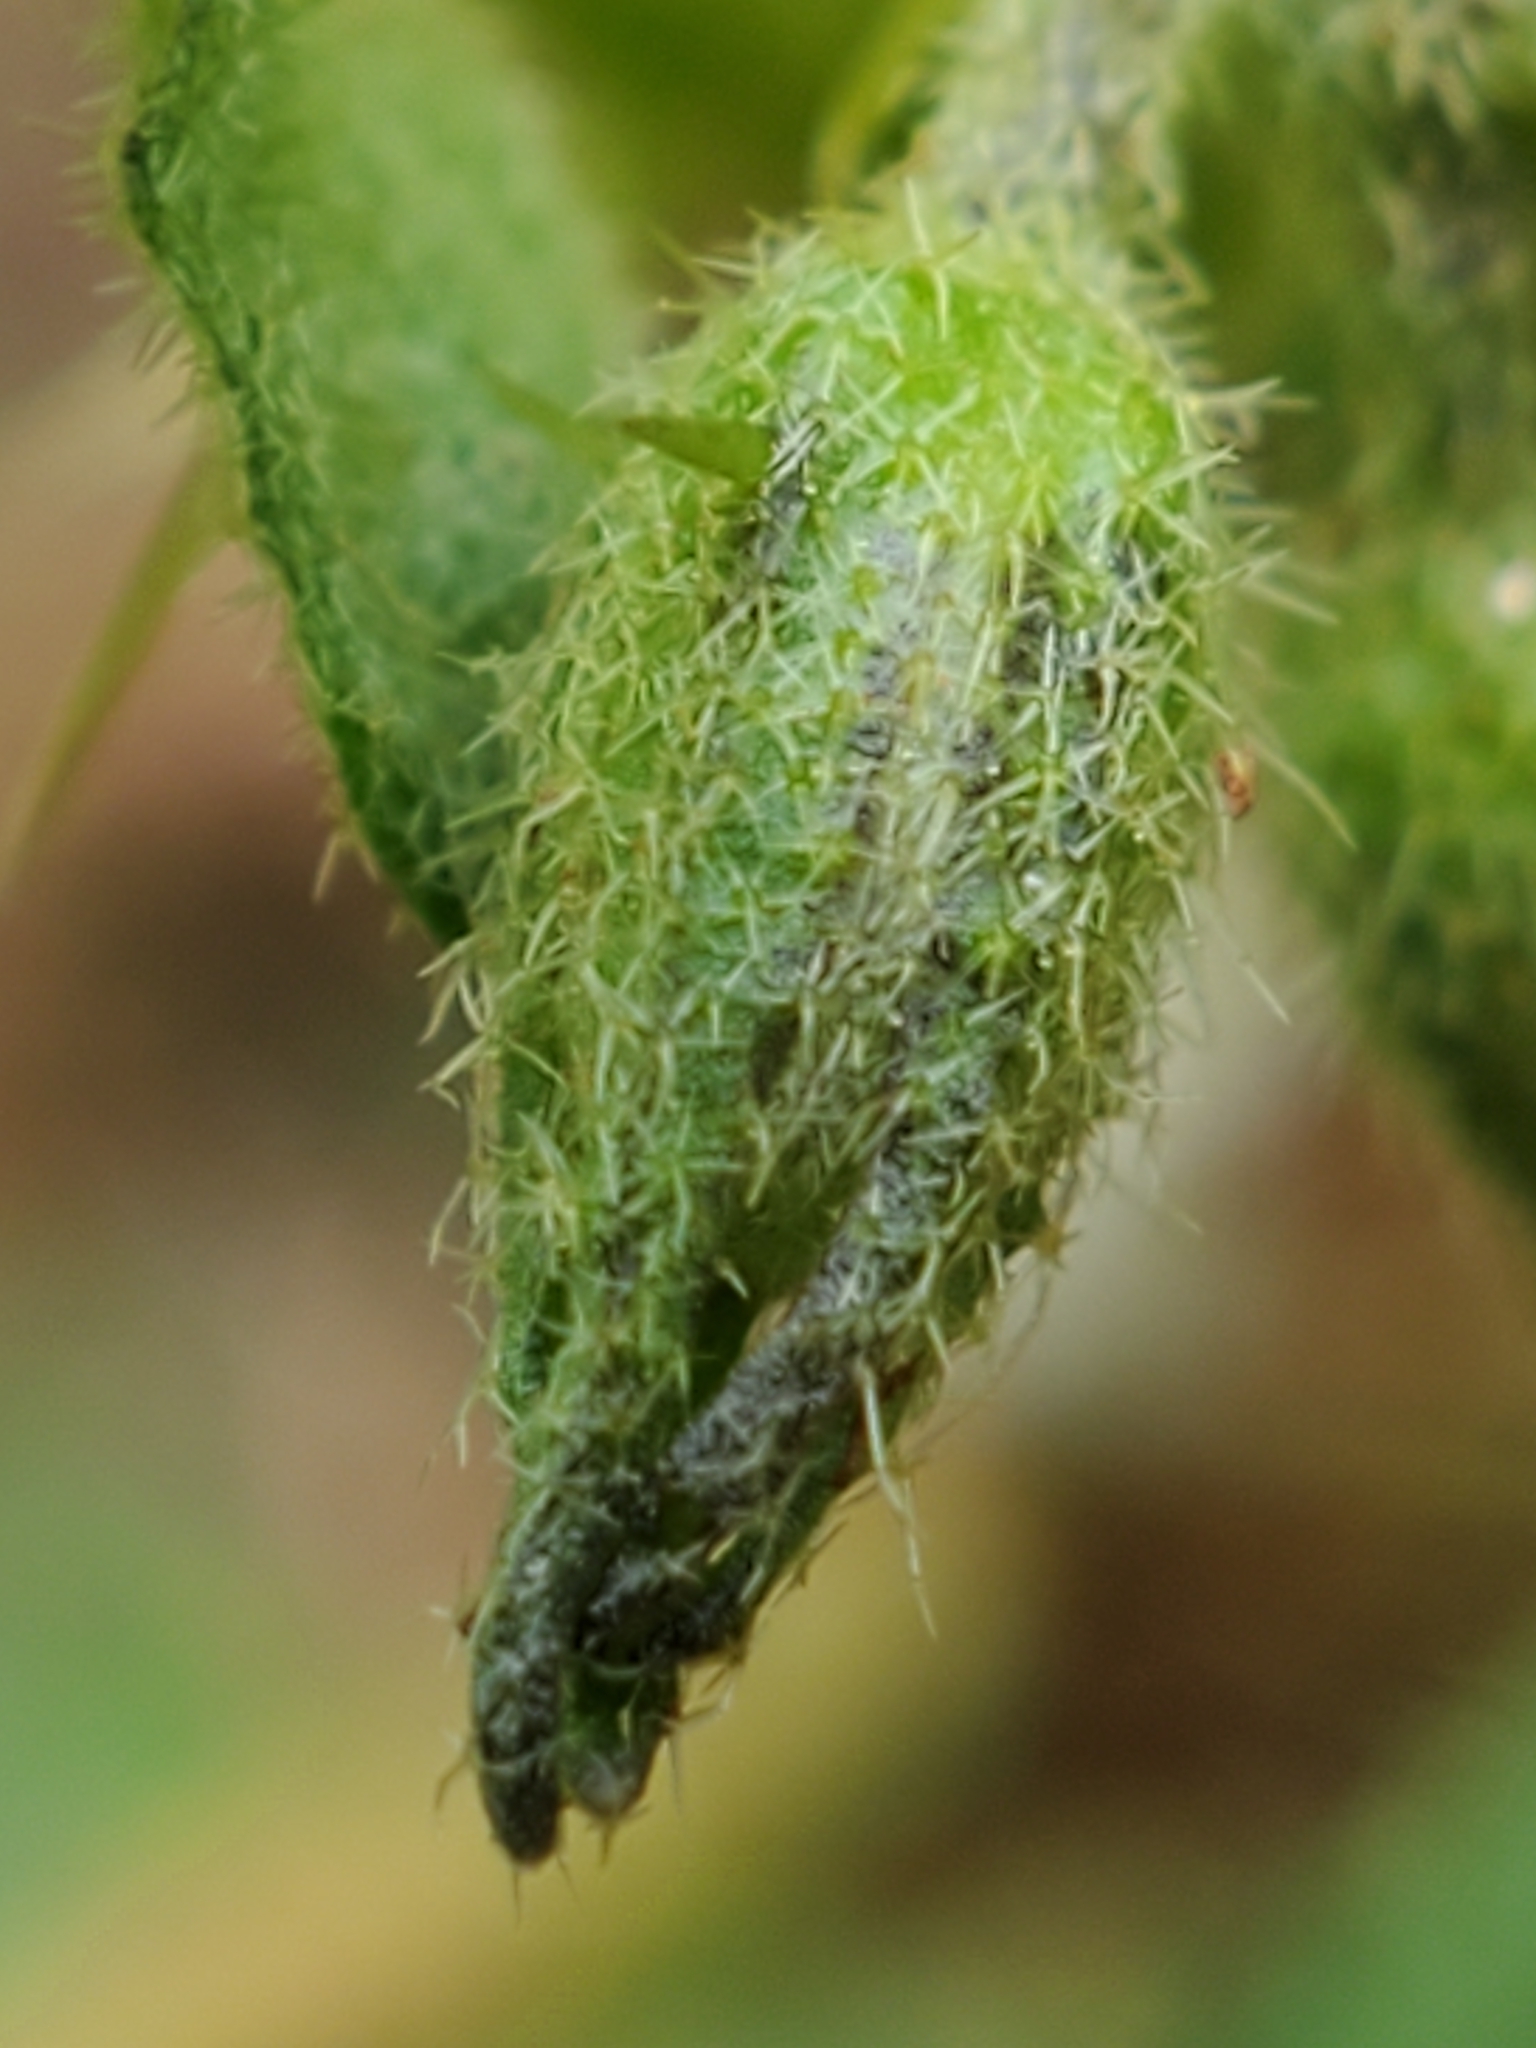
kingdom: Plantae
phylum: Tracheophyta
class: Magnoliopsida
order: Solanales
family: Solanaceae
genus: Solanum
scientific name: Solanum carolinense
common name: Horse-nettle
